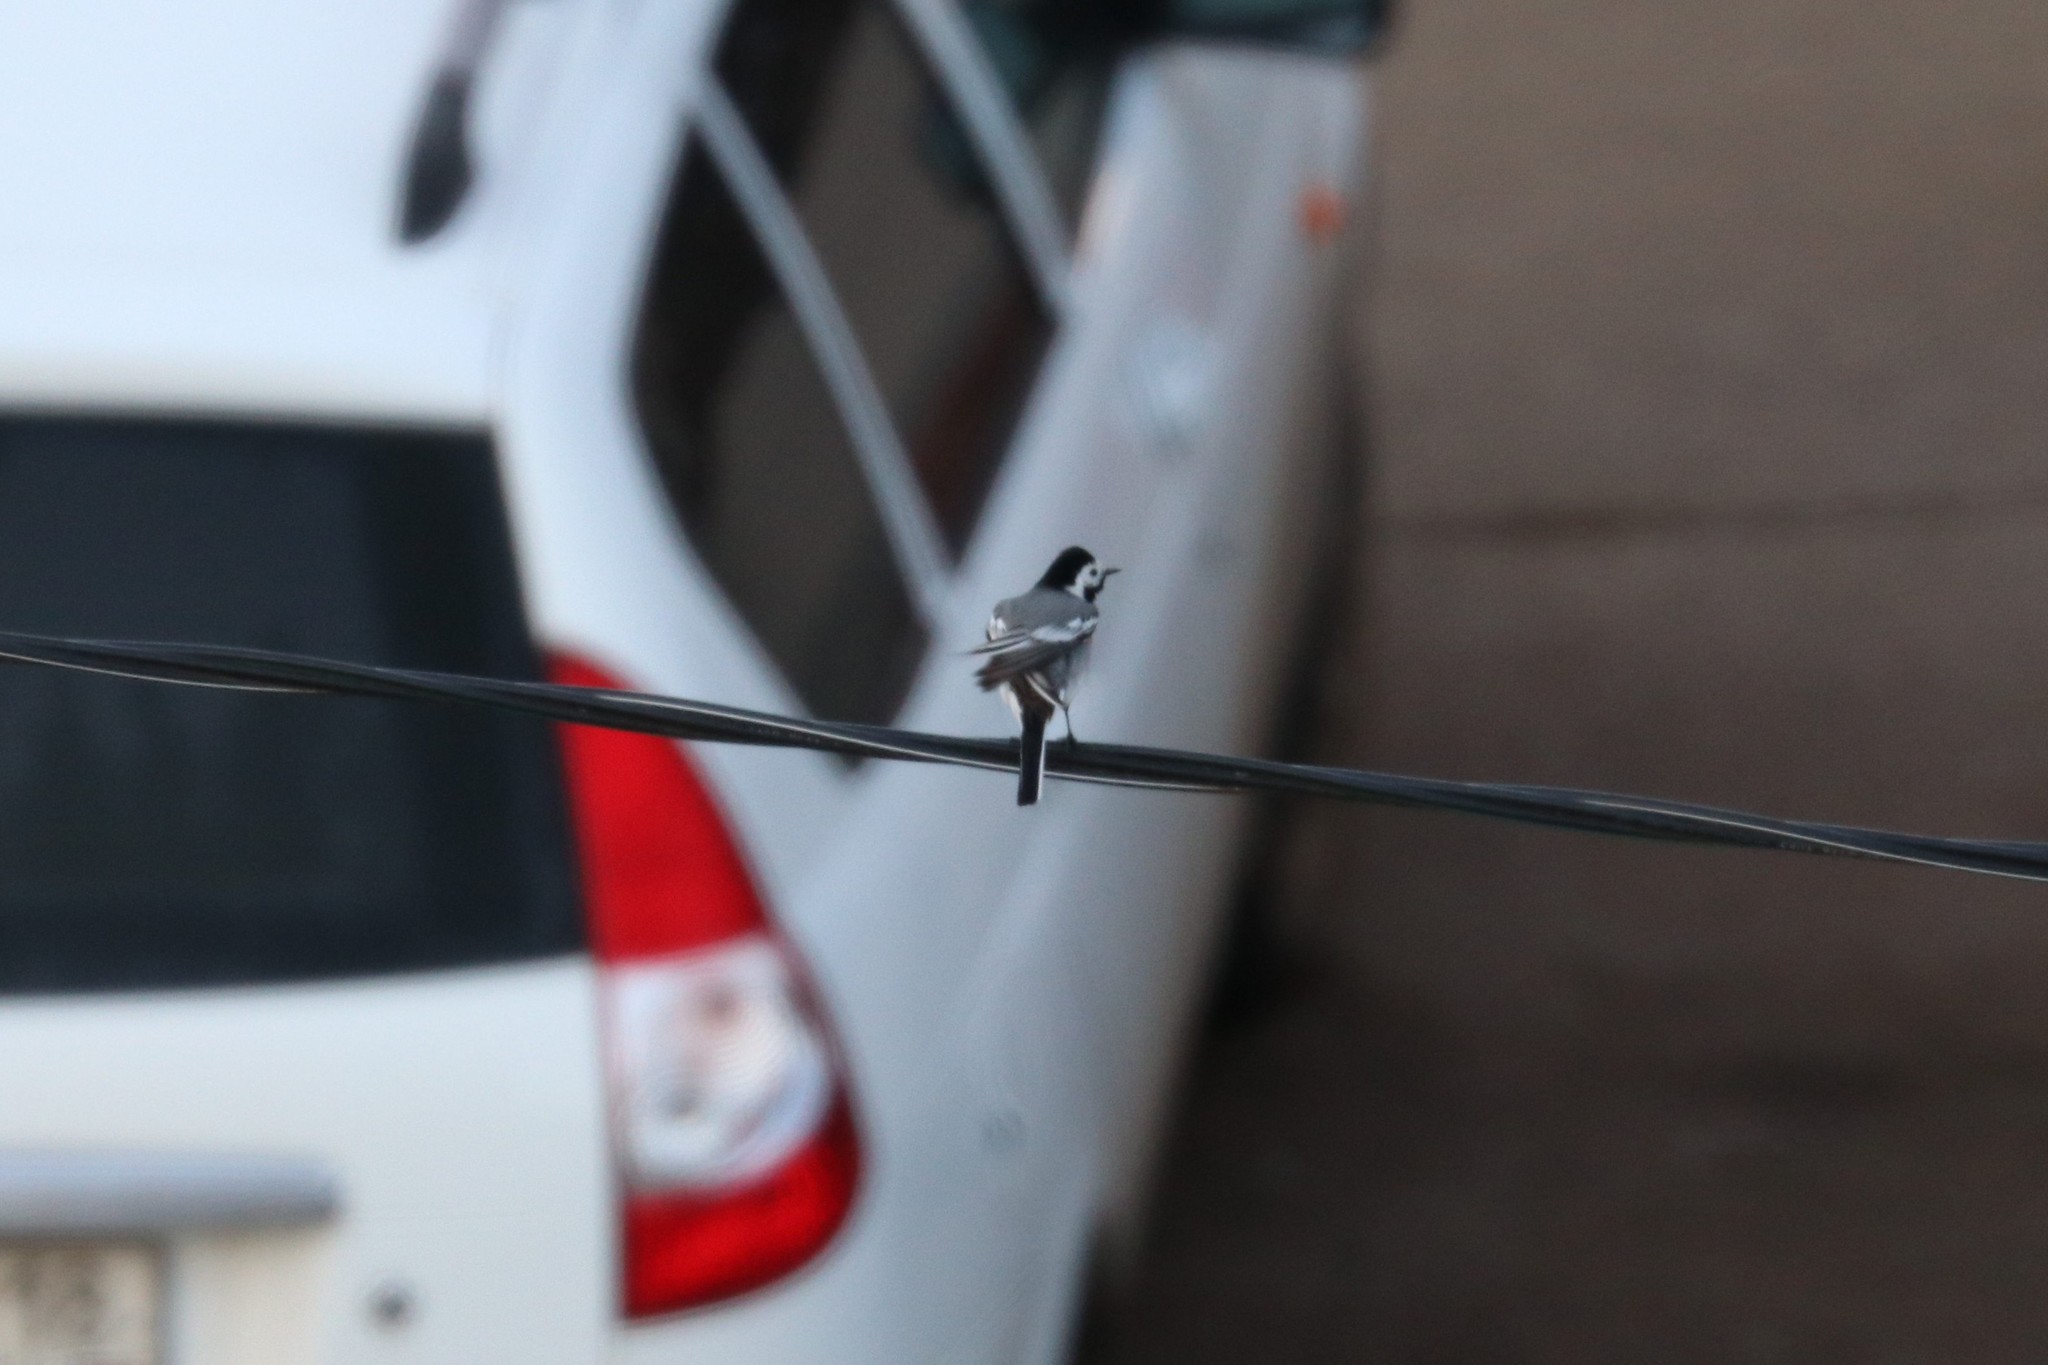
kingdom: Animalia
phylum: Chordata
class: Aves
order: Passeriformes
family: Motacillidae
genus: Motacilla
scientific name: Motacilla alba
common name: White wagtail
